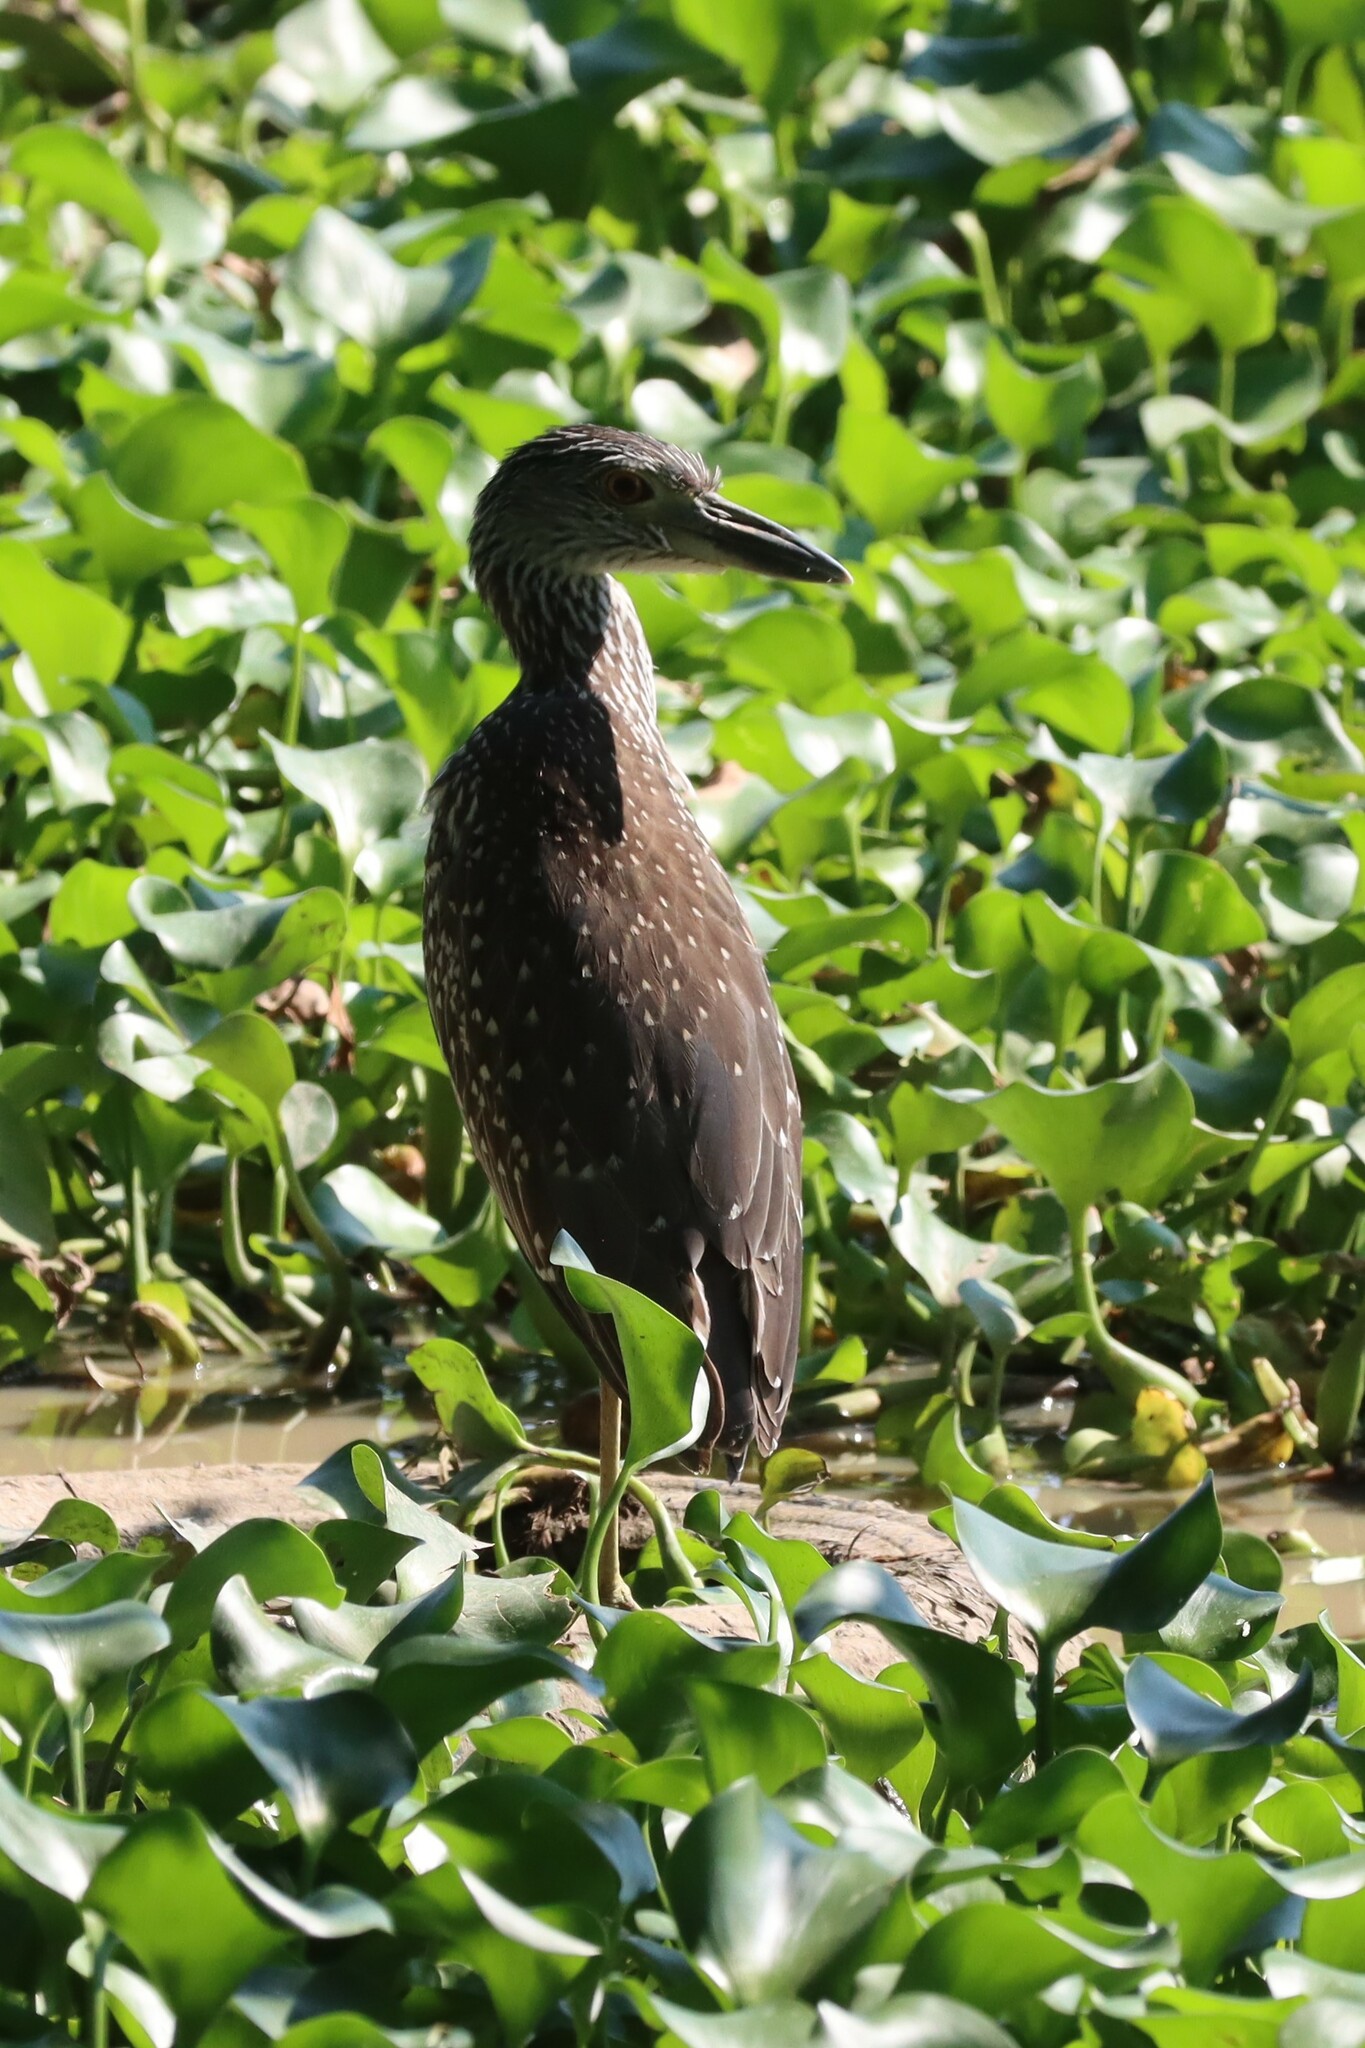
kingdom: Animalia
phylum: Chordata
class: Aves
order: Pelecaniformes
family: Ardeidae
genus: Nyctanassa
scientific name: Nyctanassa violacea
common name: Yellow-crowned night heron
